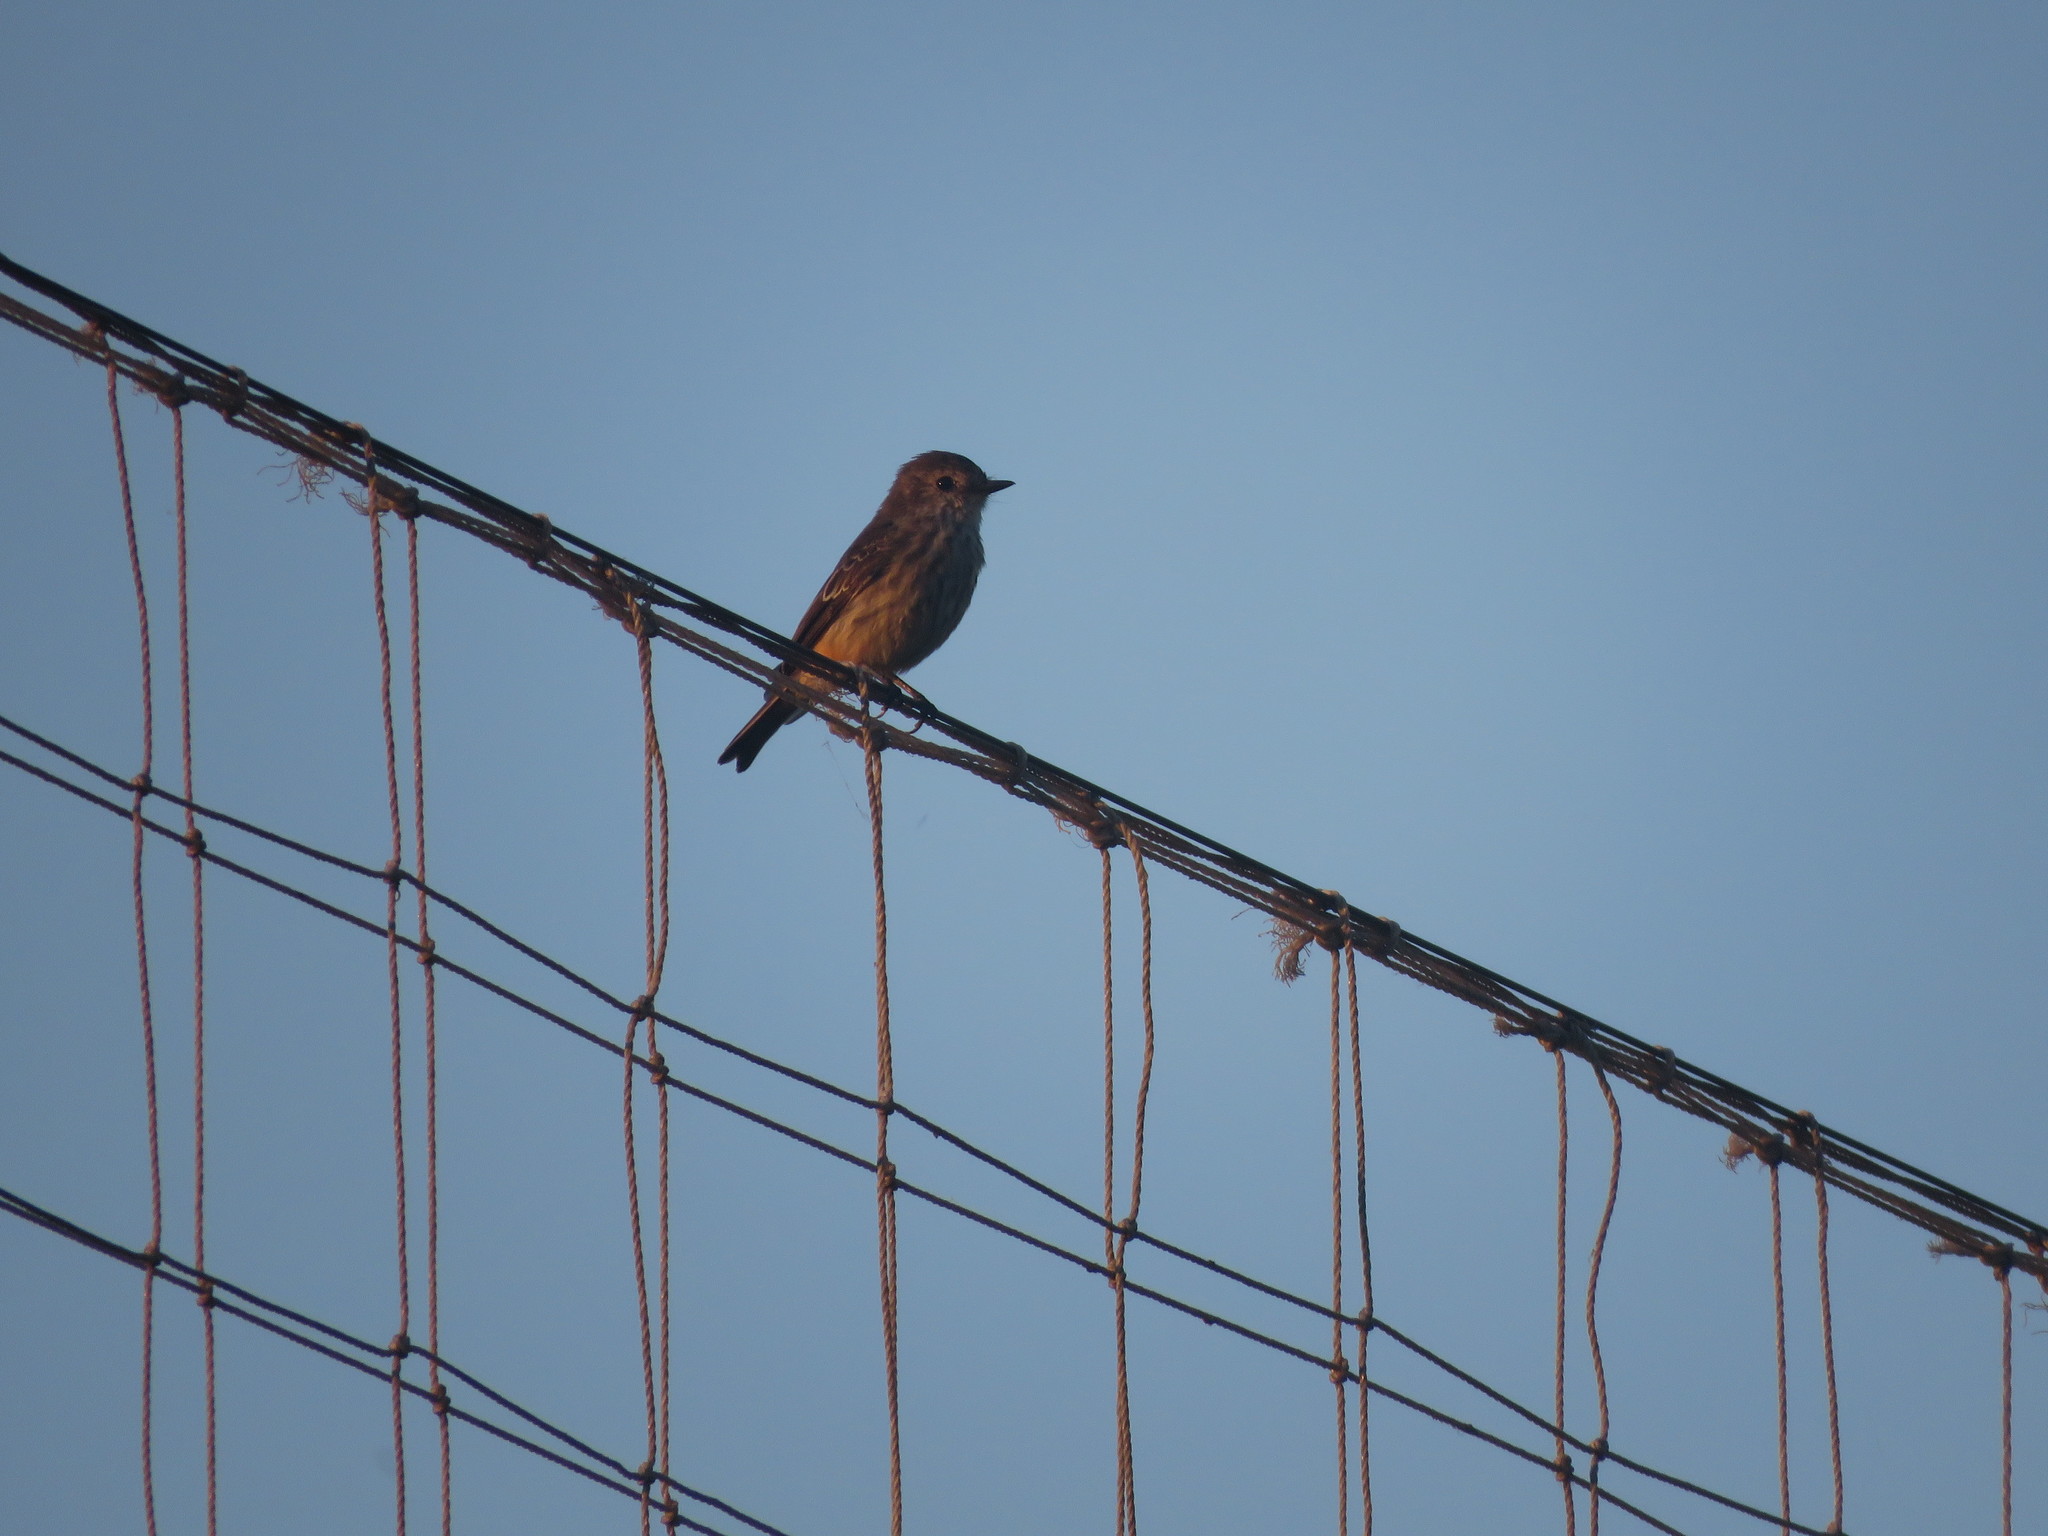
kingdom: Animalia
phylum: Chordata
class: Aves
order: Passeriformes
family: Tyrannidae
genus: Pyrocephalus
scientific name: Pyrocephalus rubinus
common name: Vermilion flycatcher
